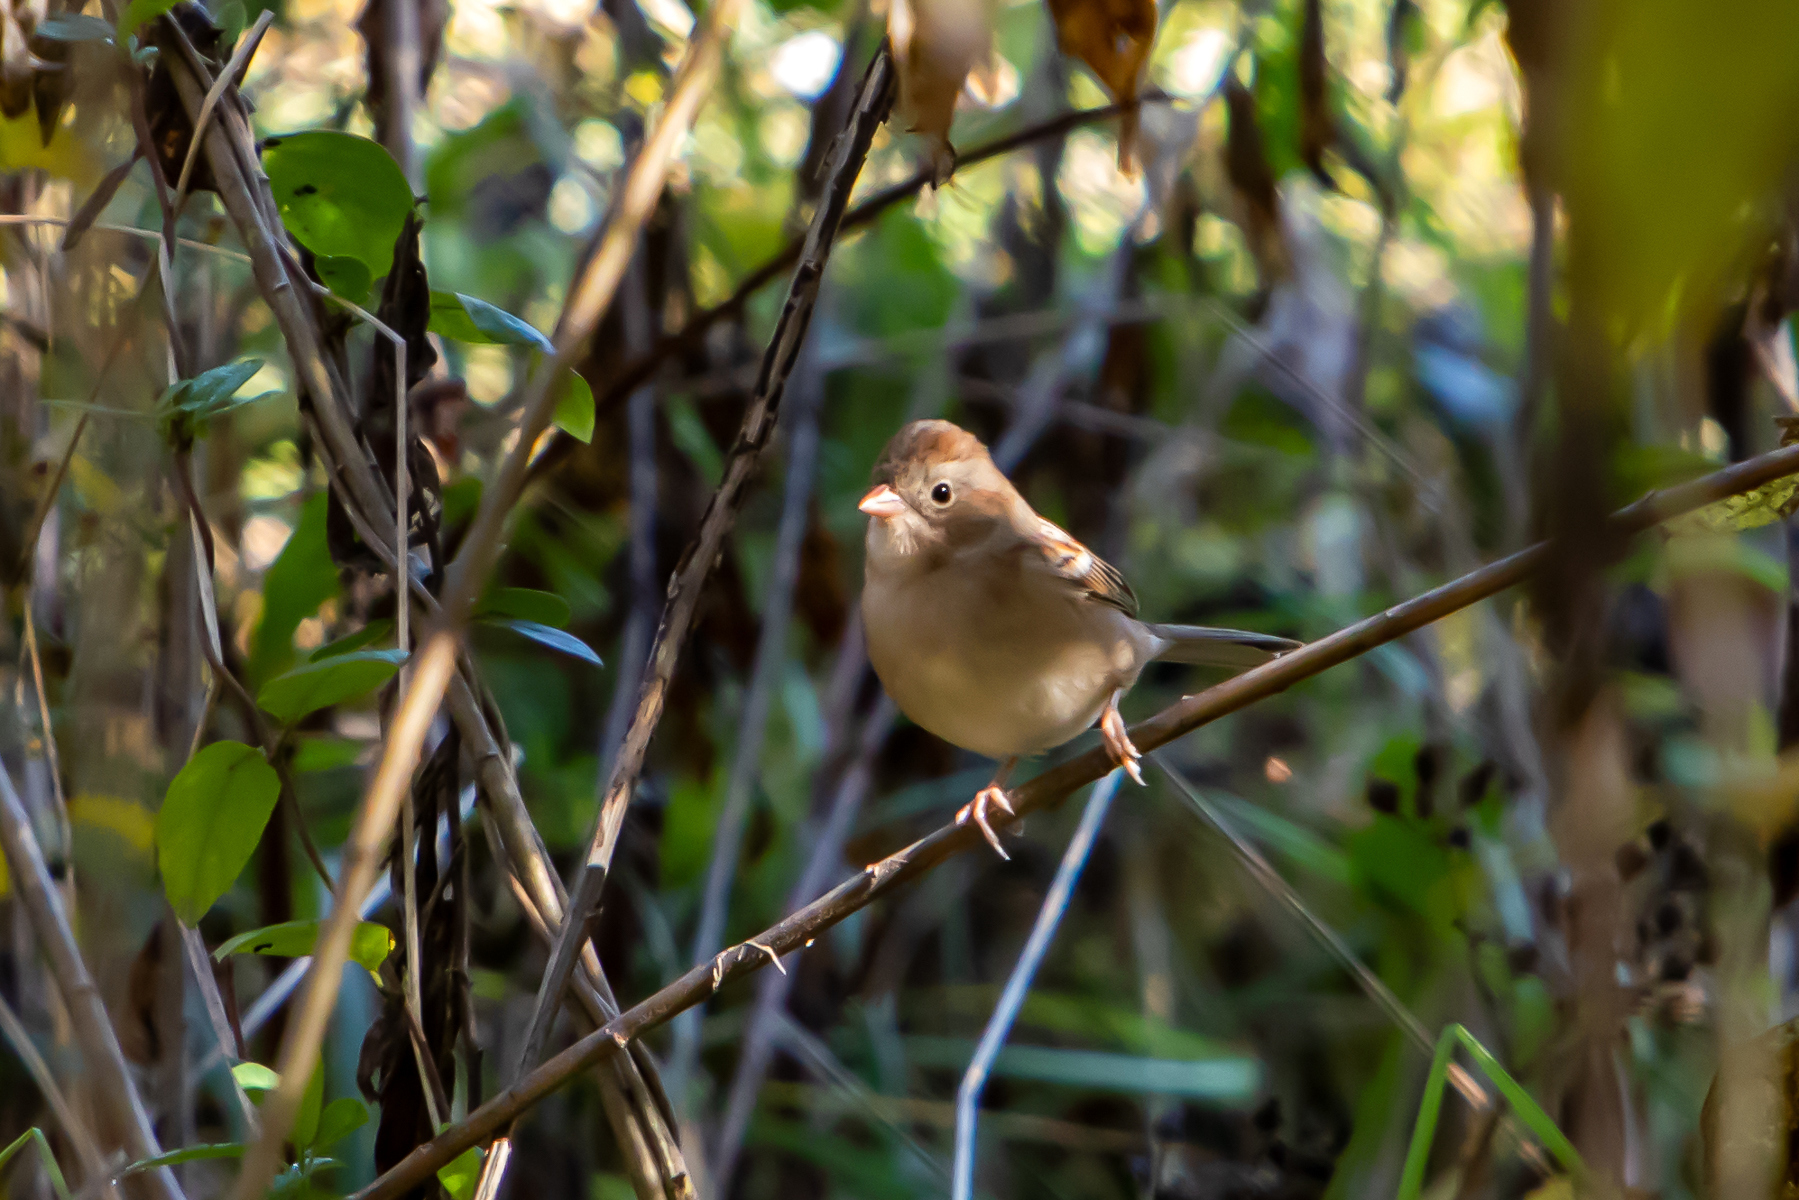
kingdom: Animalia
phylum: Chordata
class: Aves
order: Passeriformes
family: Passerellidae
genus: Spizella
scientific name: Spizella pusilla
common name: Field sparrow
